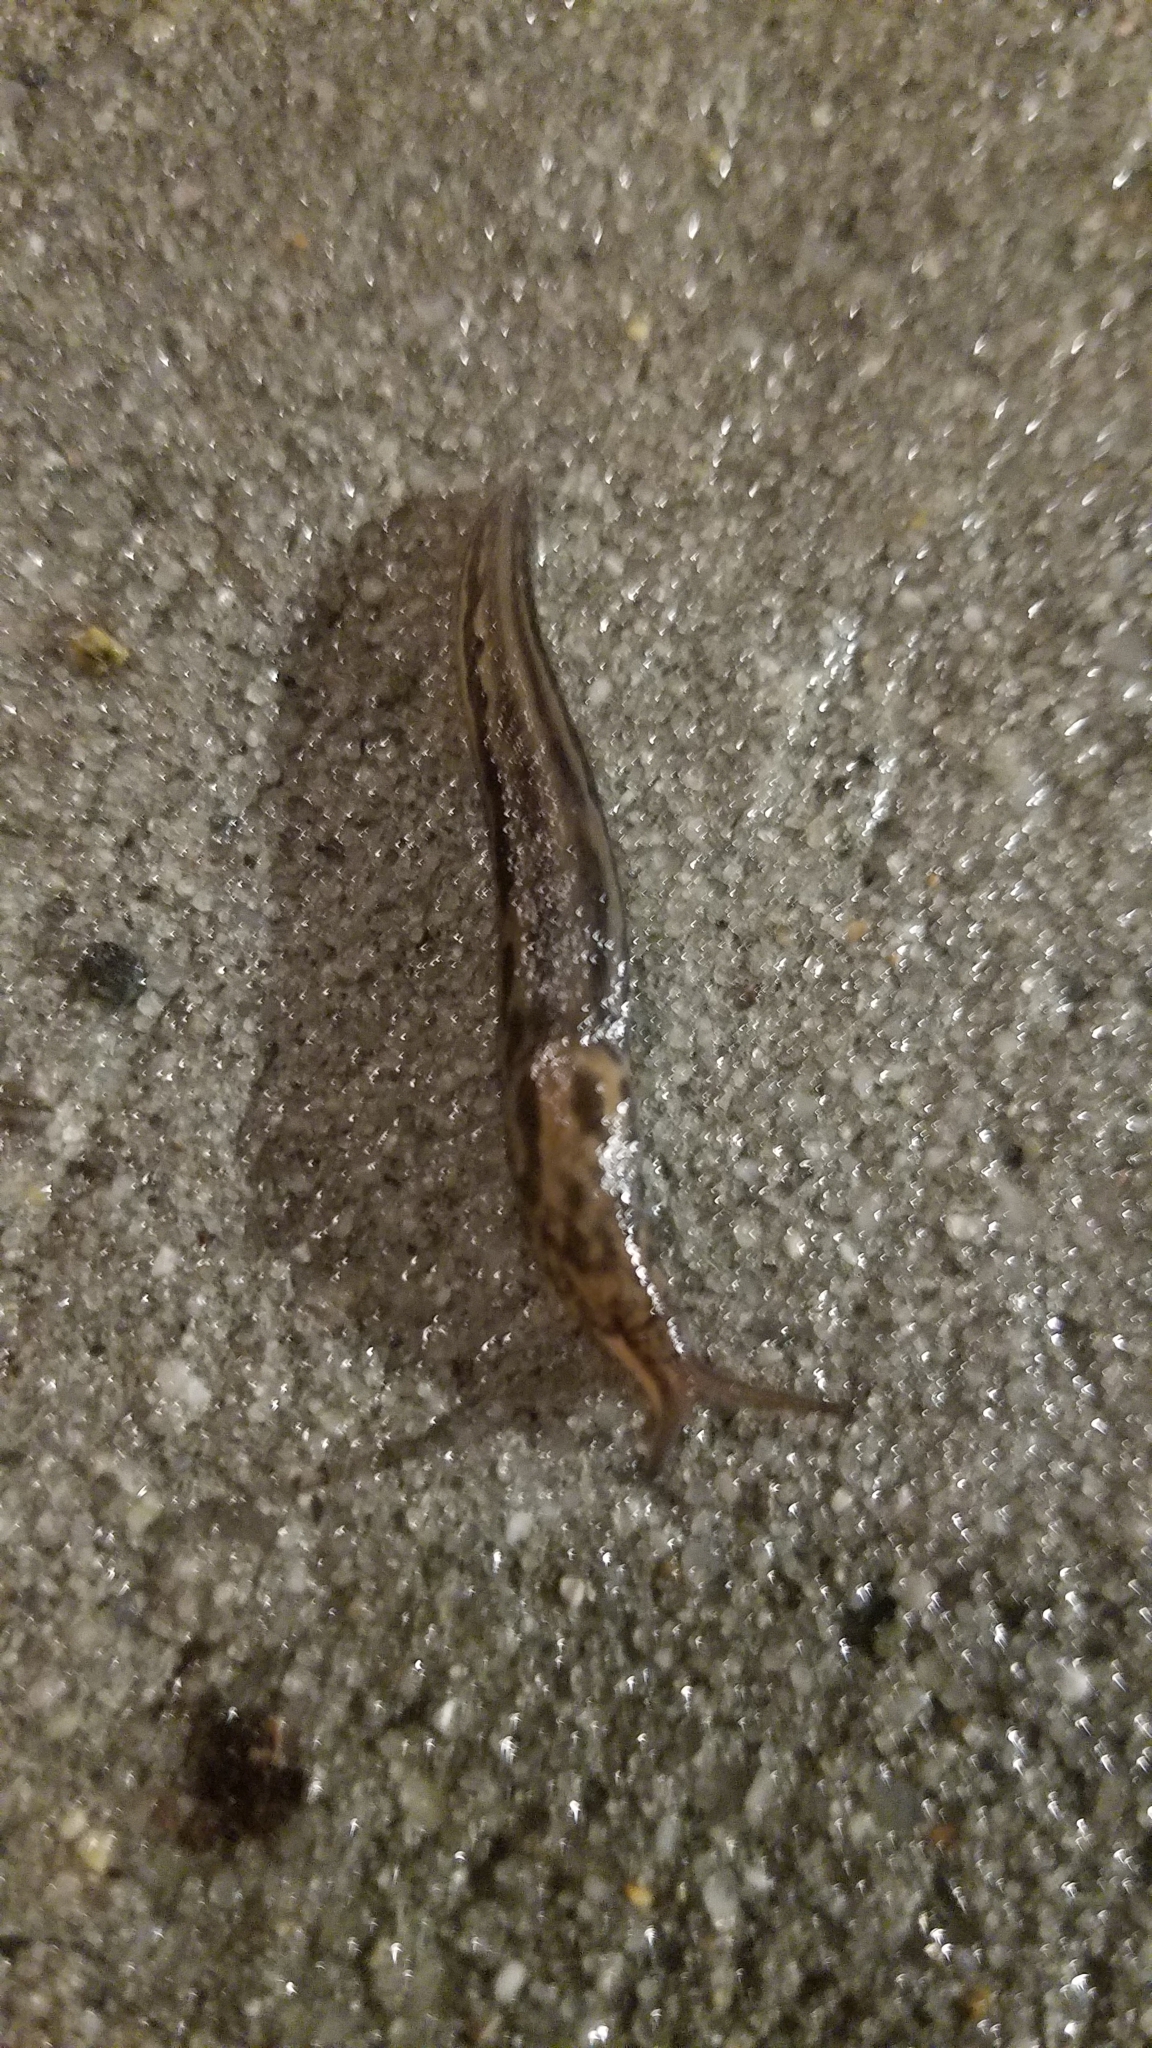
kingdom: Animalia
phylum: Mollusca
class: Gastropoda
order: Stylommatophora
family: Limacidae
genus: Limax
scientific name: Limax maximus
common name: Great grey slug
